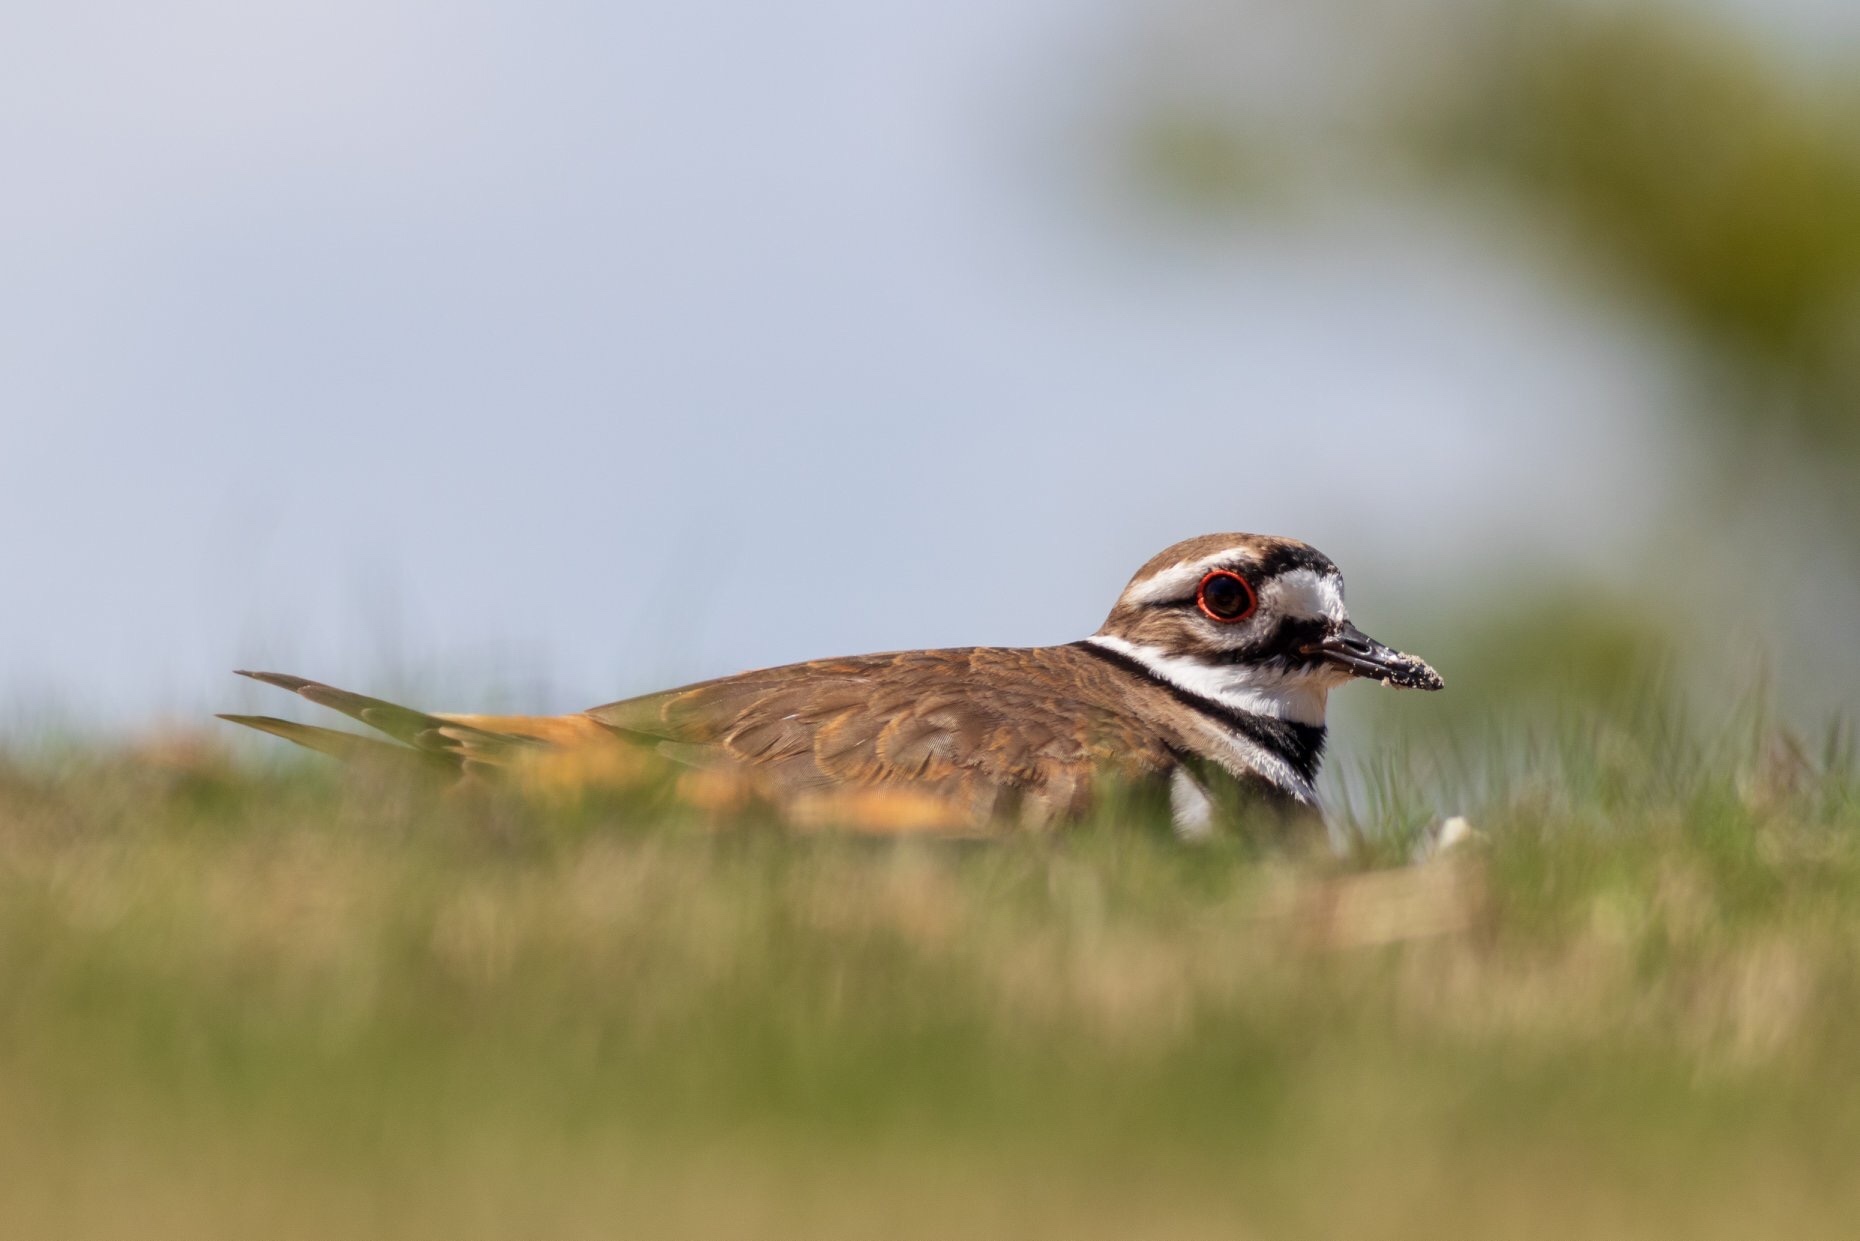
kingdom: Animalia
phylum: Chordata
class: Aves
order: Charadriiformes
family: Charadriidae
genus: Charadrius
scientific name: Charadrius vociferus
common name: Killdeer
